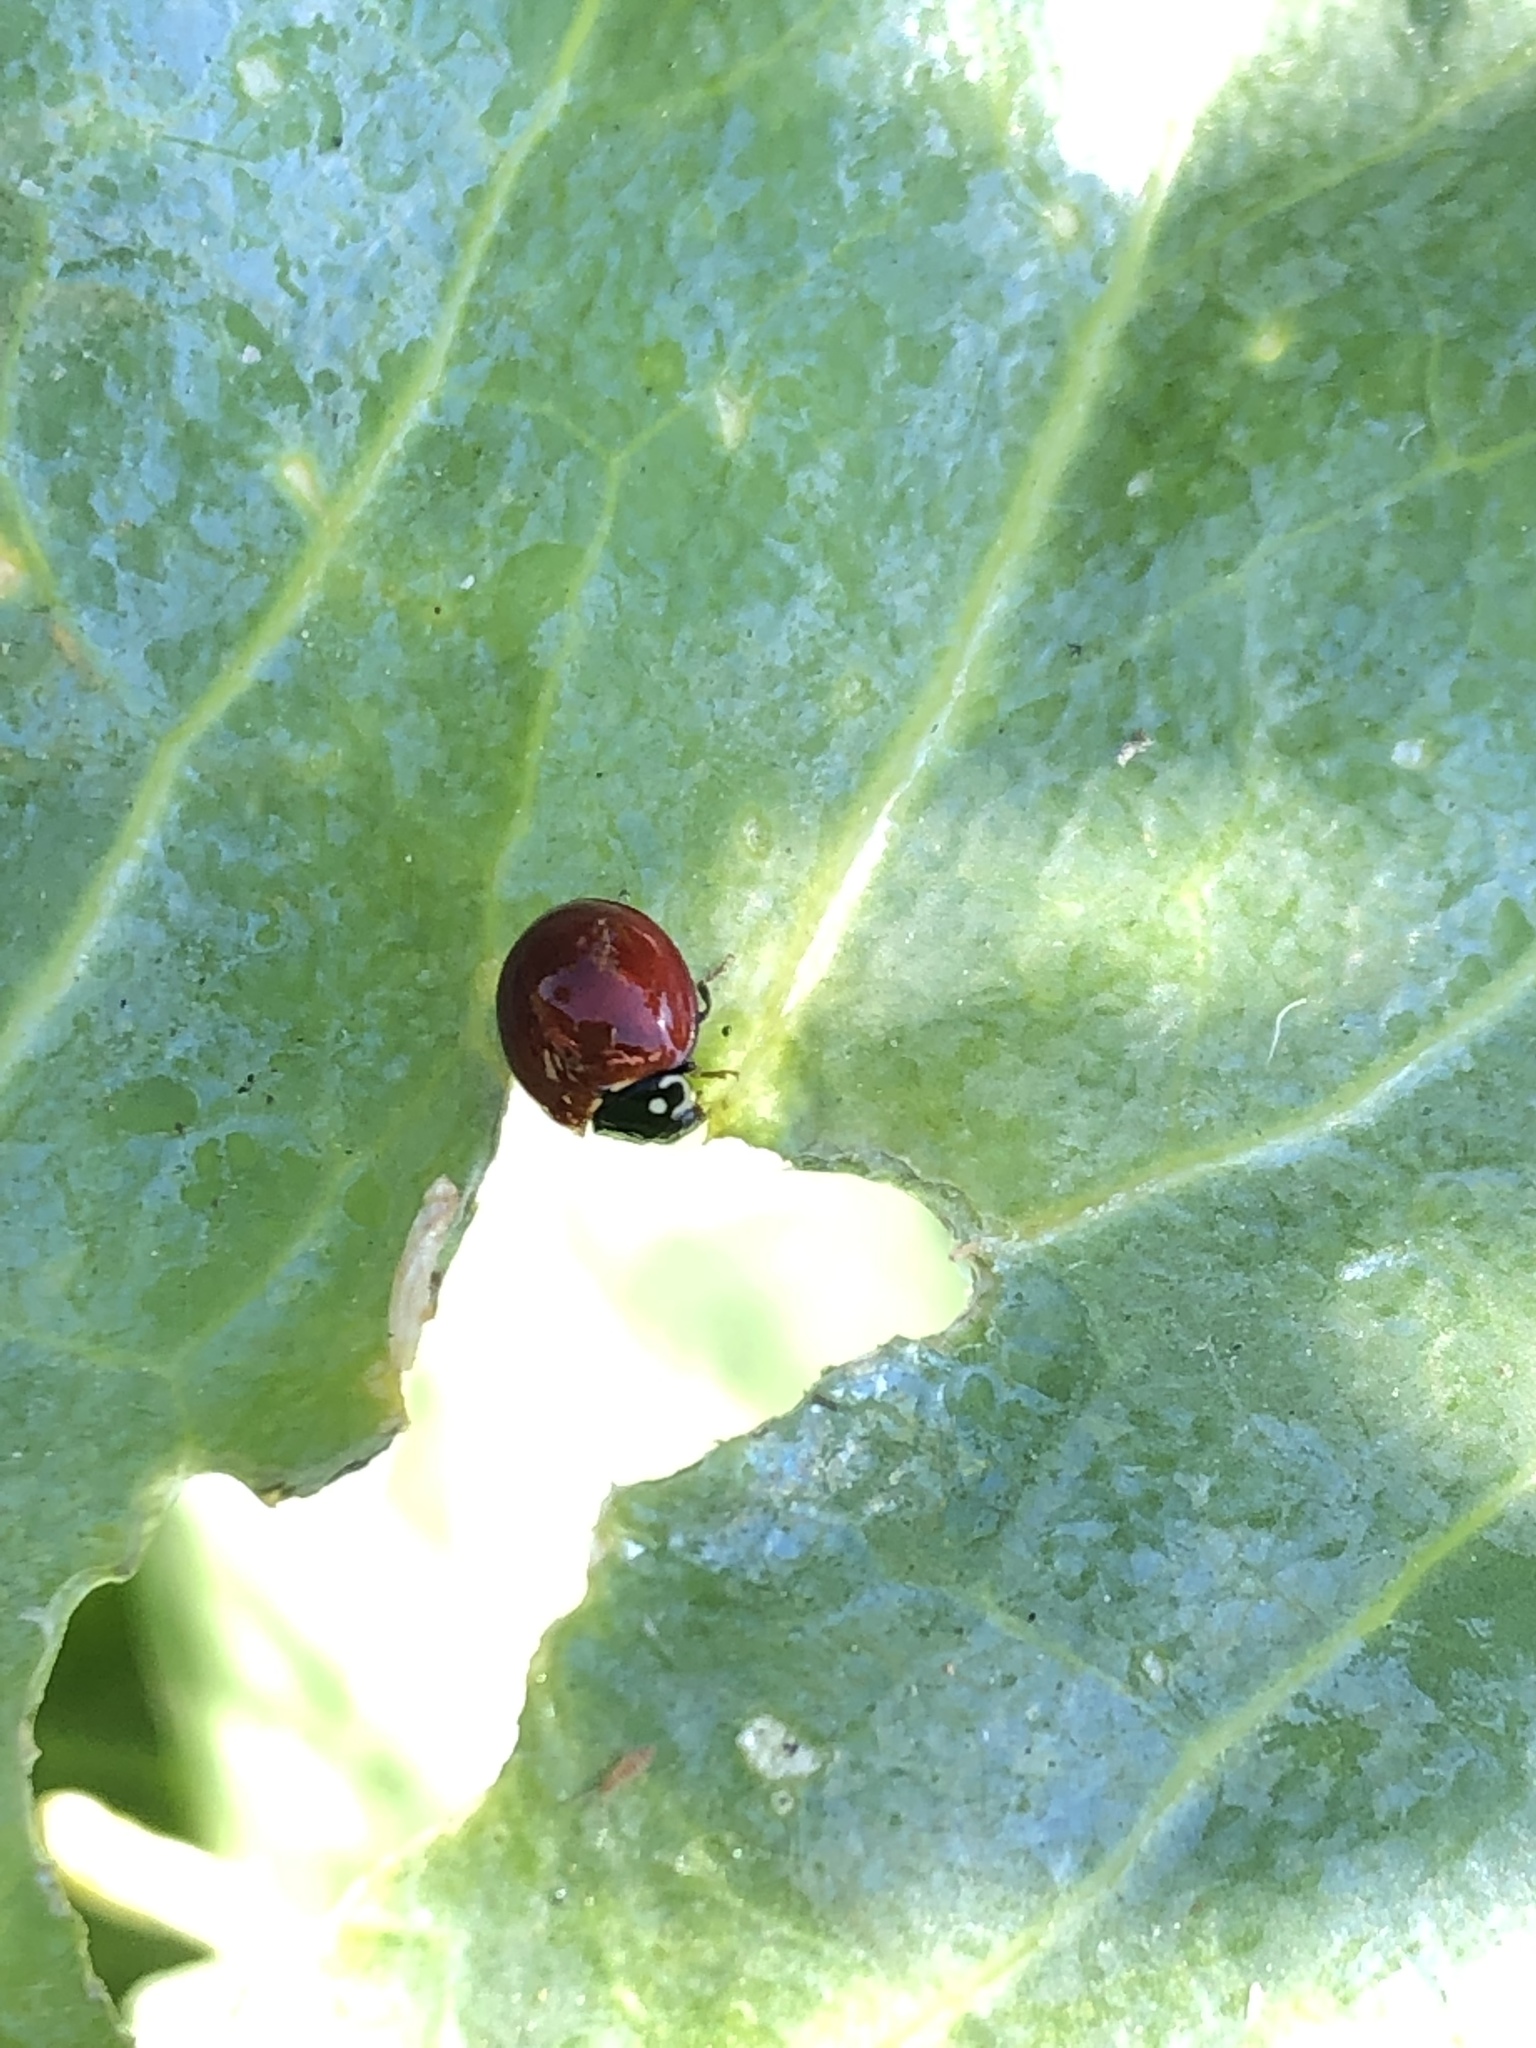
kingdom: Animalia
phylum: Arthropoda
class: Insecta
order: Coleoptera
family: Coccinellidae
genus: Cycloneda
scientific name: Cycloneda sanguinea
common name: Ladybird beetle
